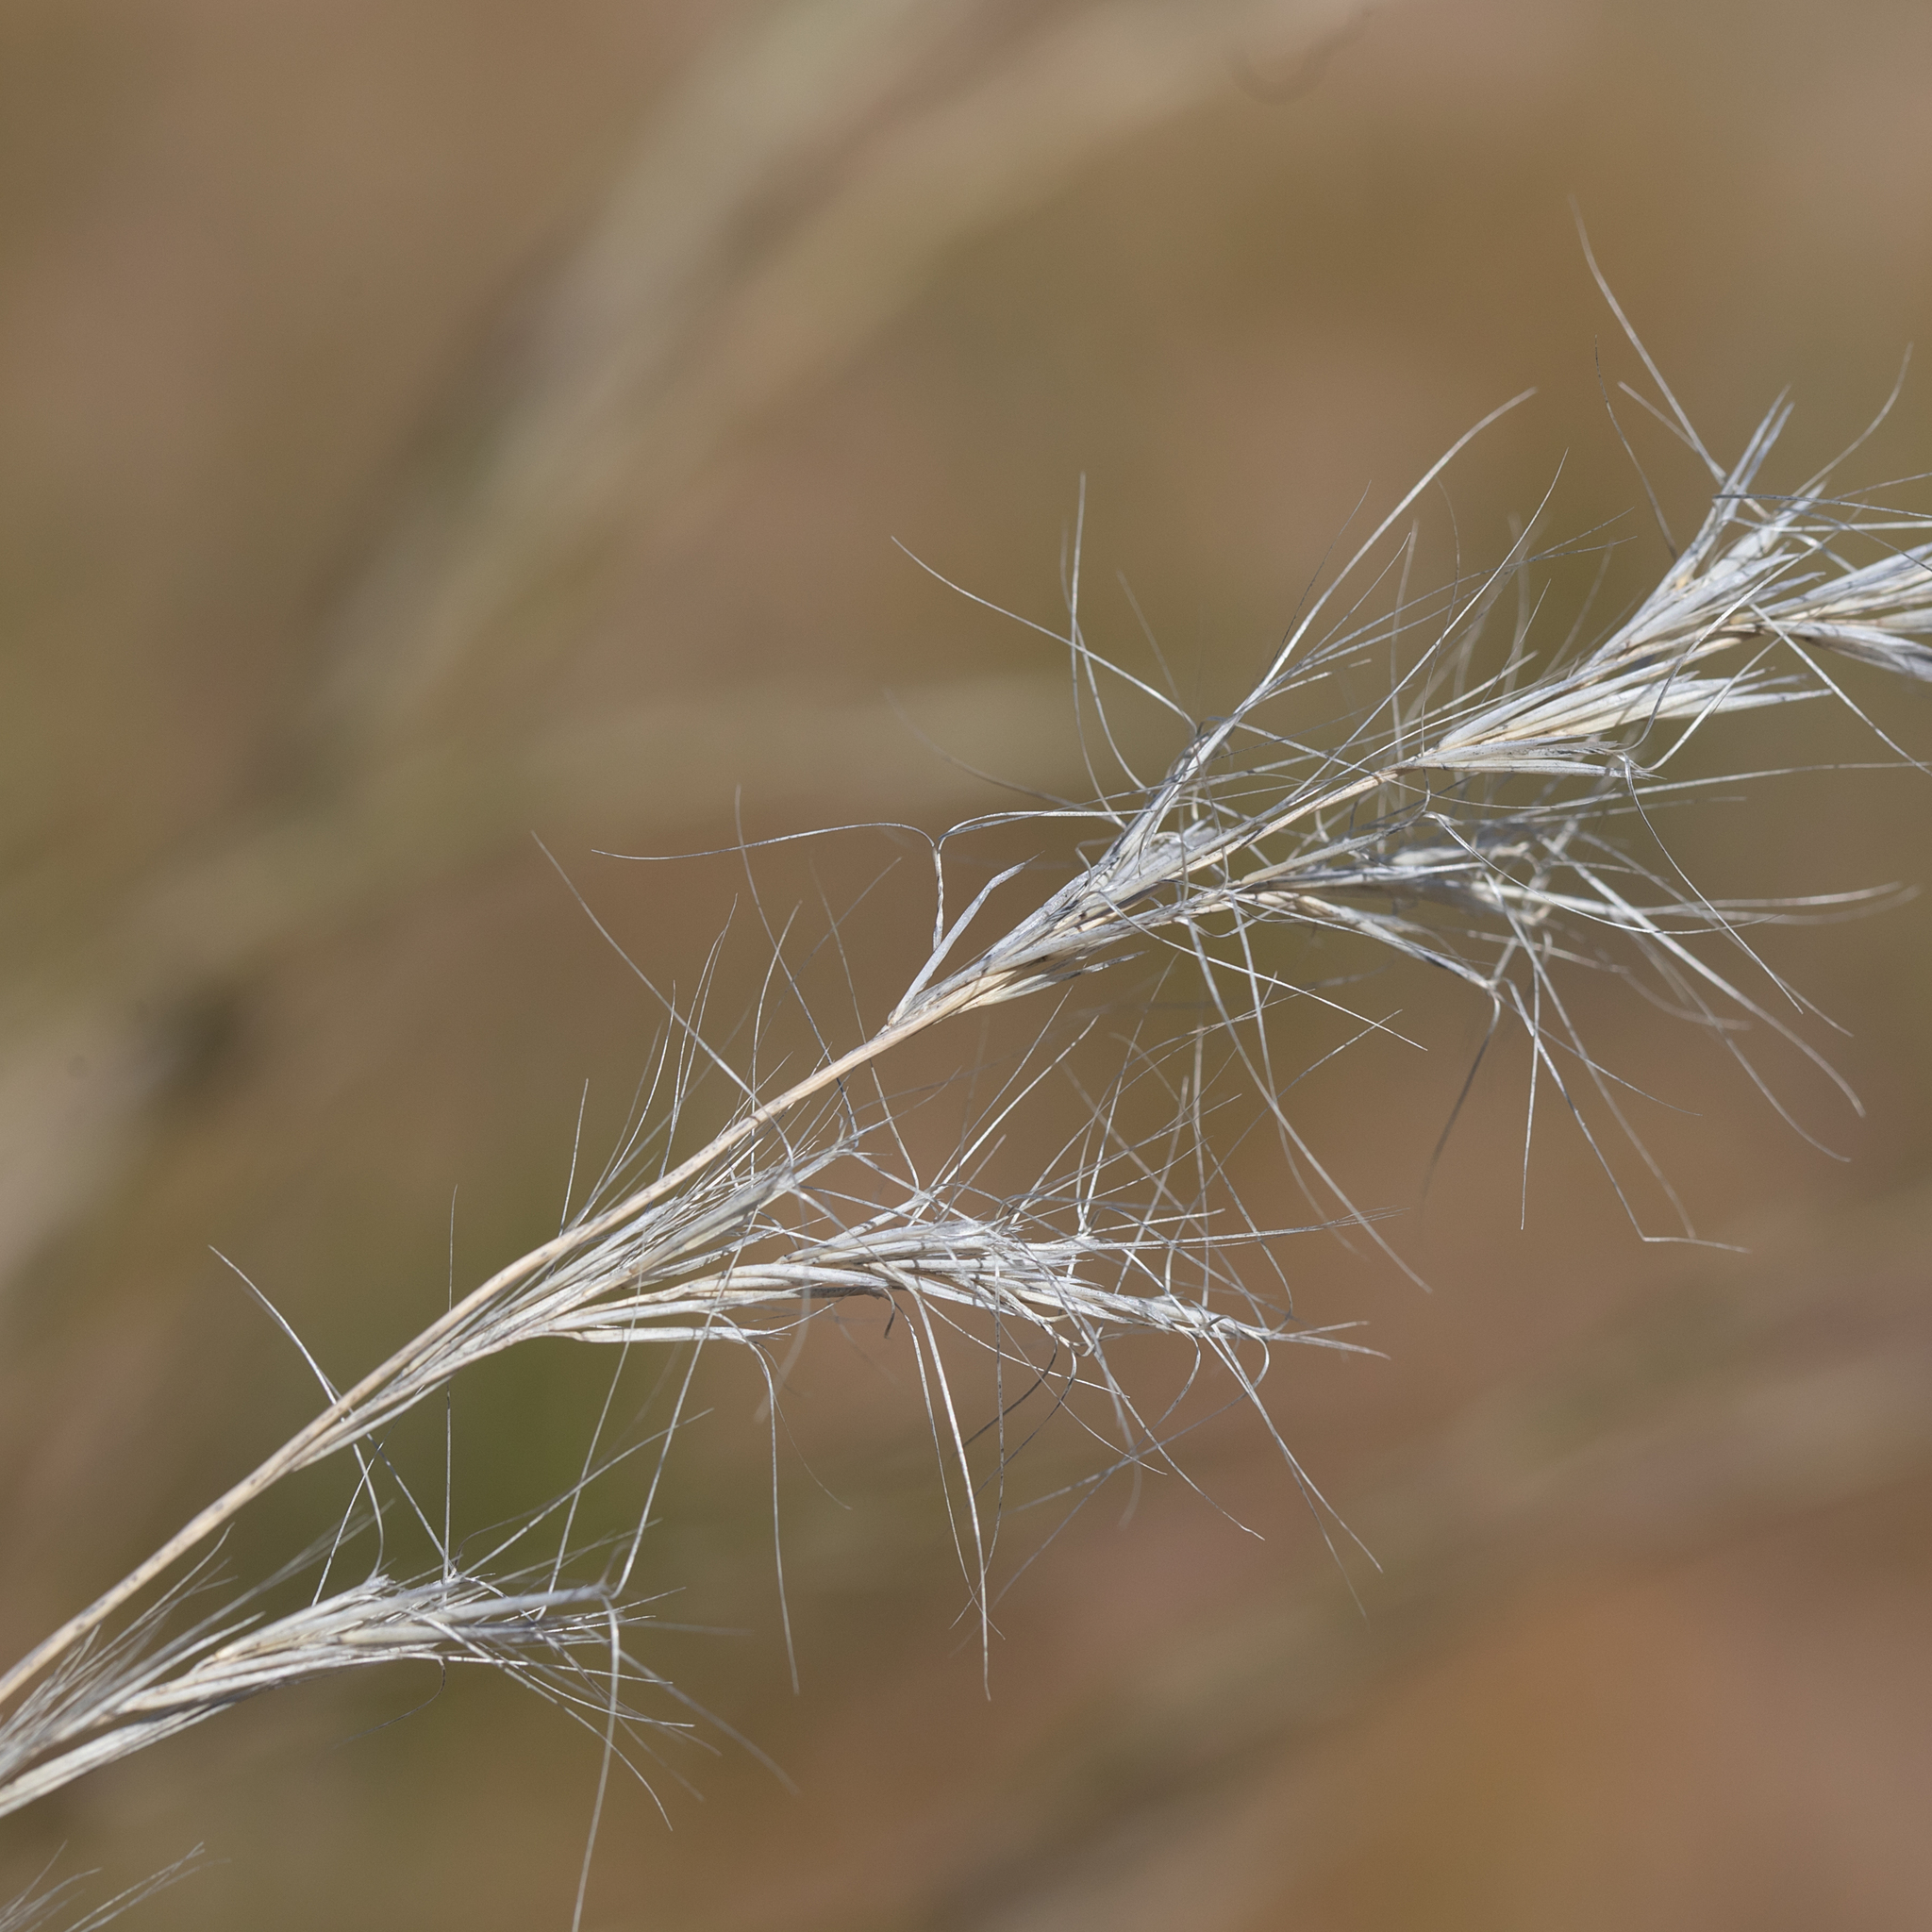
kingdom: Plantae
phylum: Tracheophyta
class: Liliopsida
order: Poales
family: Poaceae
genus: Aristida
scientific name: Aristida latifolia
